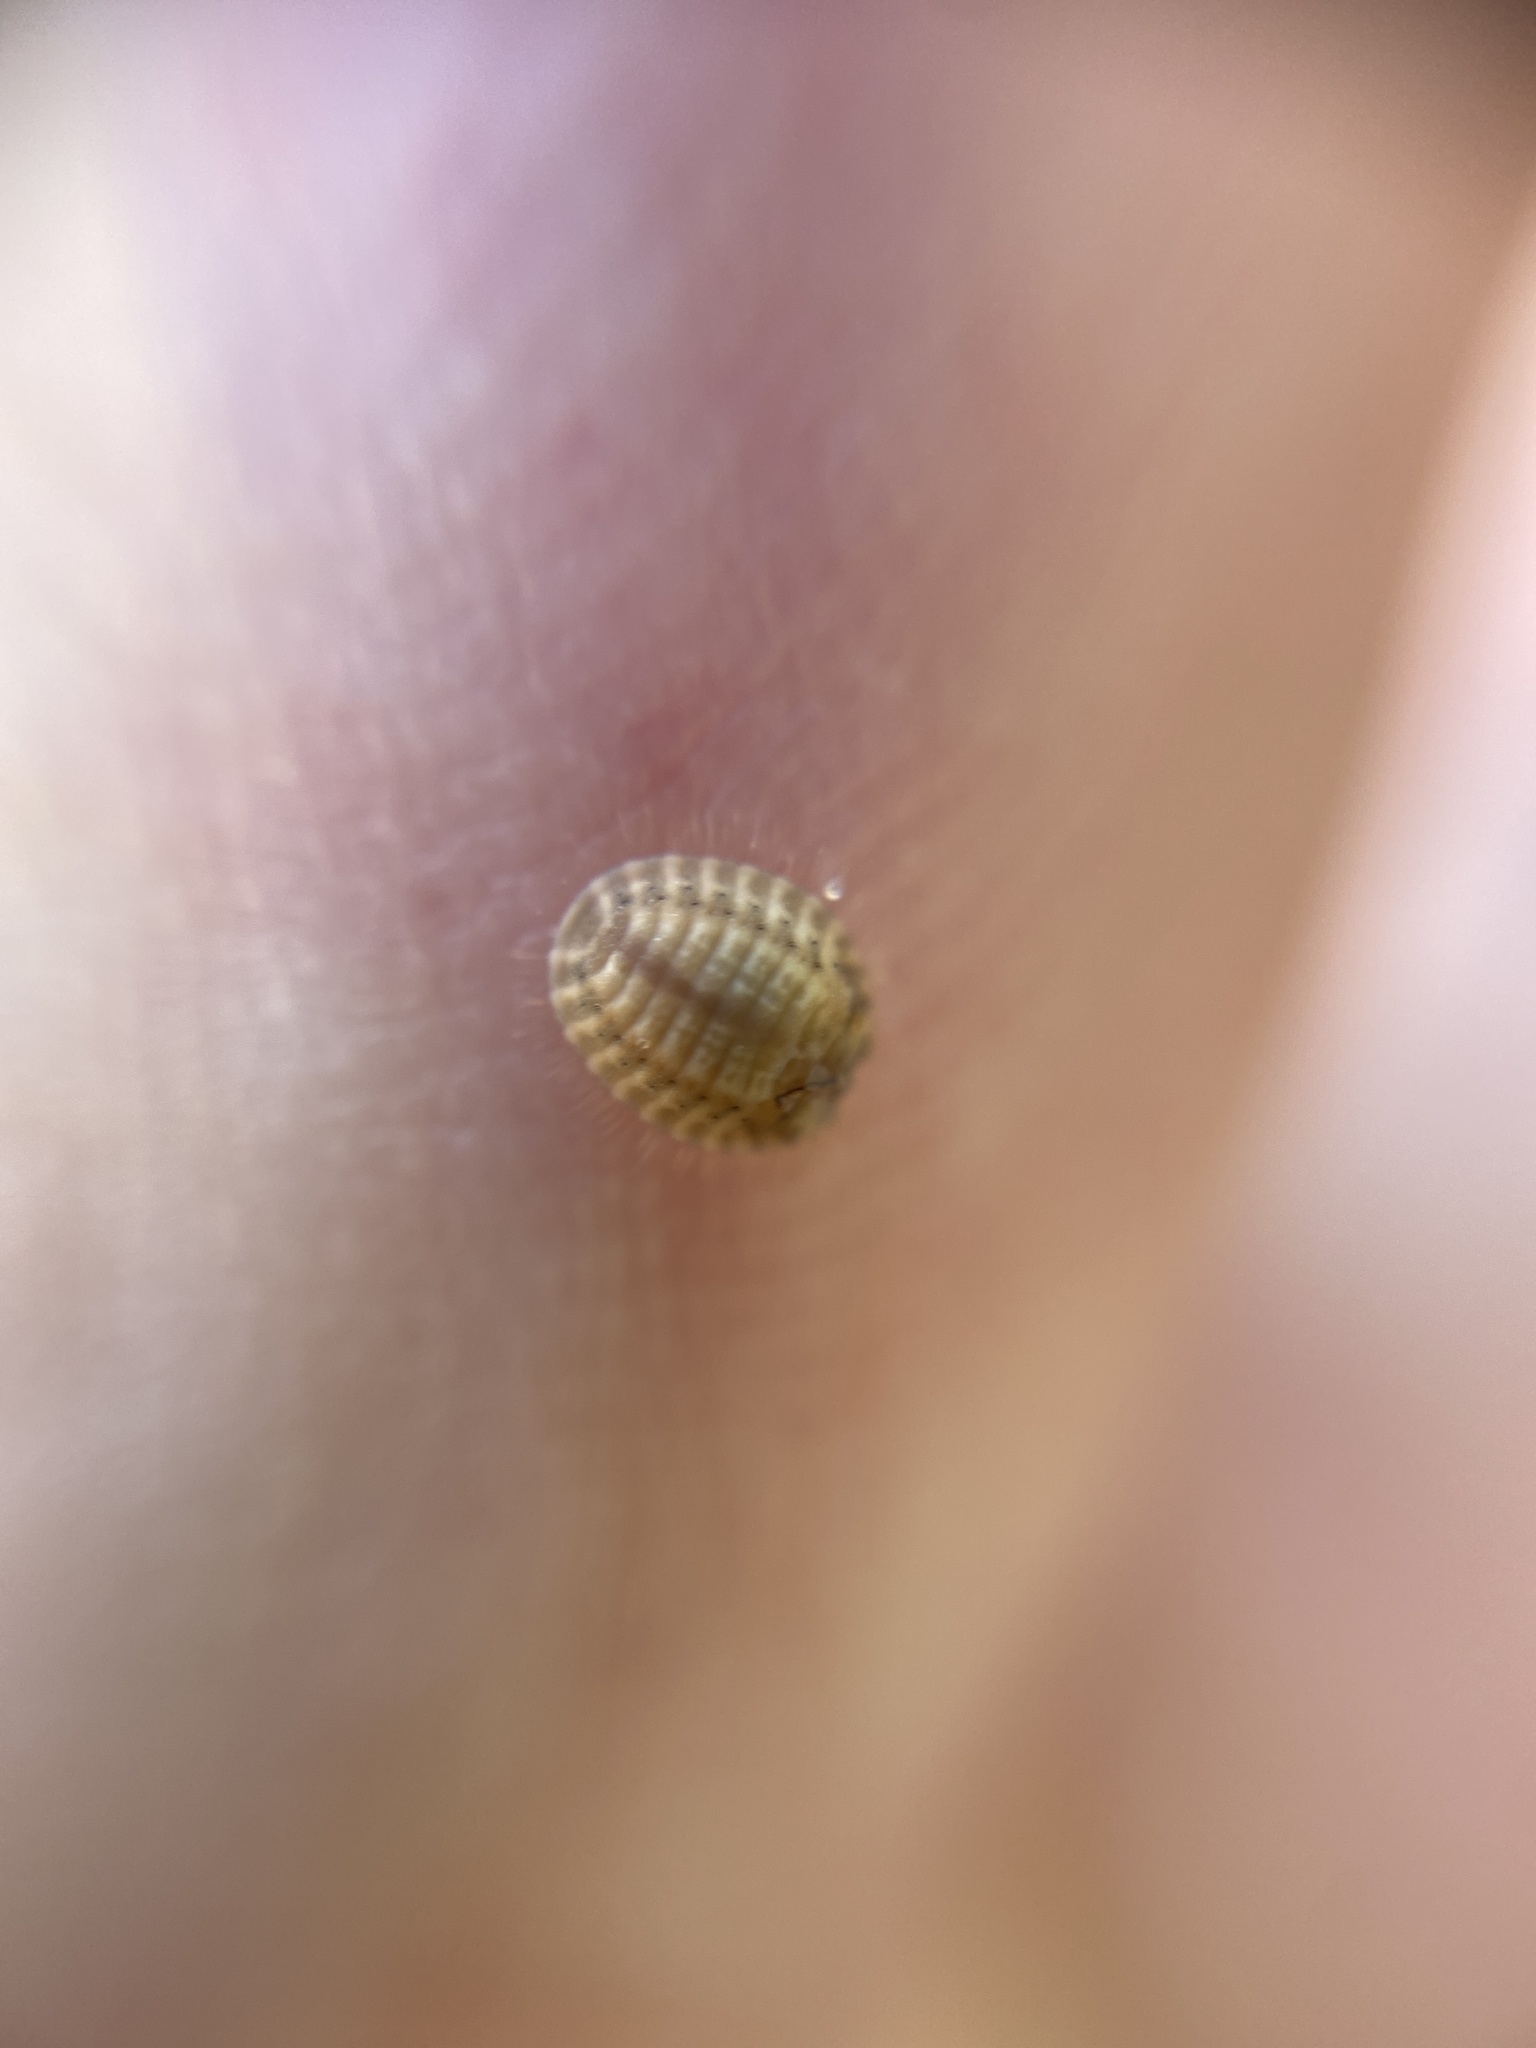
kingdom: Animalia
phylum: Arthropoda
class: Insecta
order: Coleoptera
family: Coccinellidae
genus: Platynaspis
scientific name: Platynaspis luteorubra
